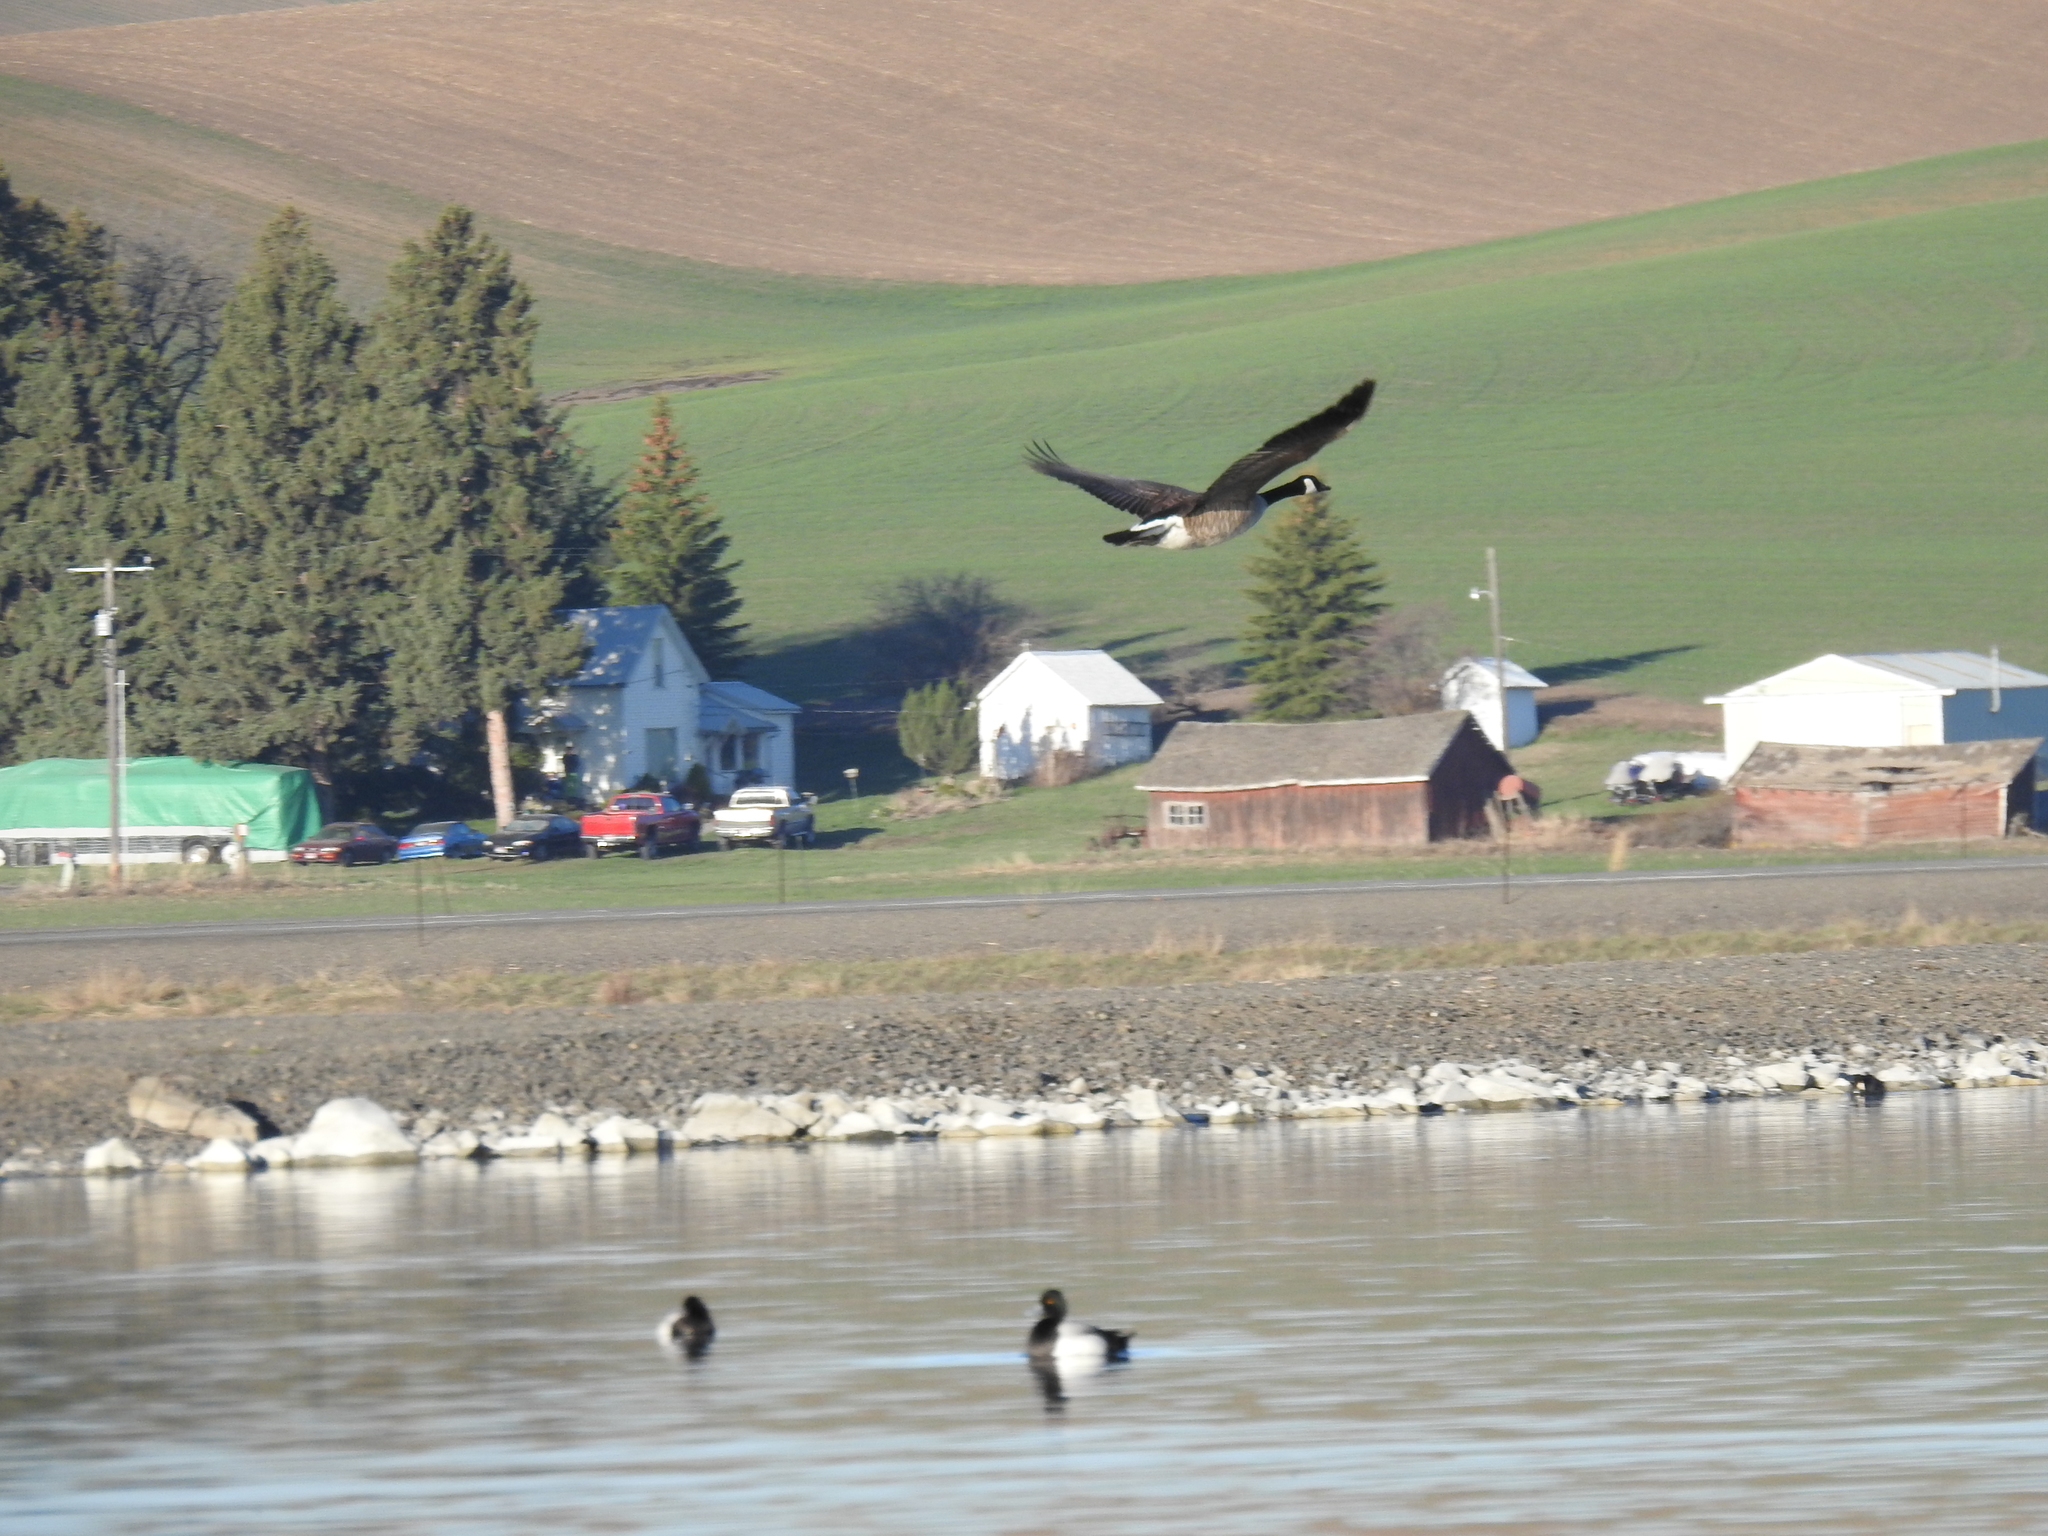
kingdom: Animalia
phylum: Chordata
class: Aves
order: Anseriformes
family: Anatidae
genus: Aythya
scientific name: Aythya affinis
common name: Lesser scaup
